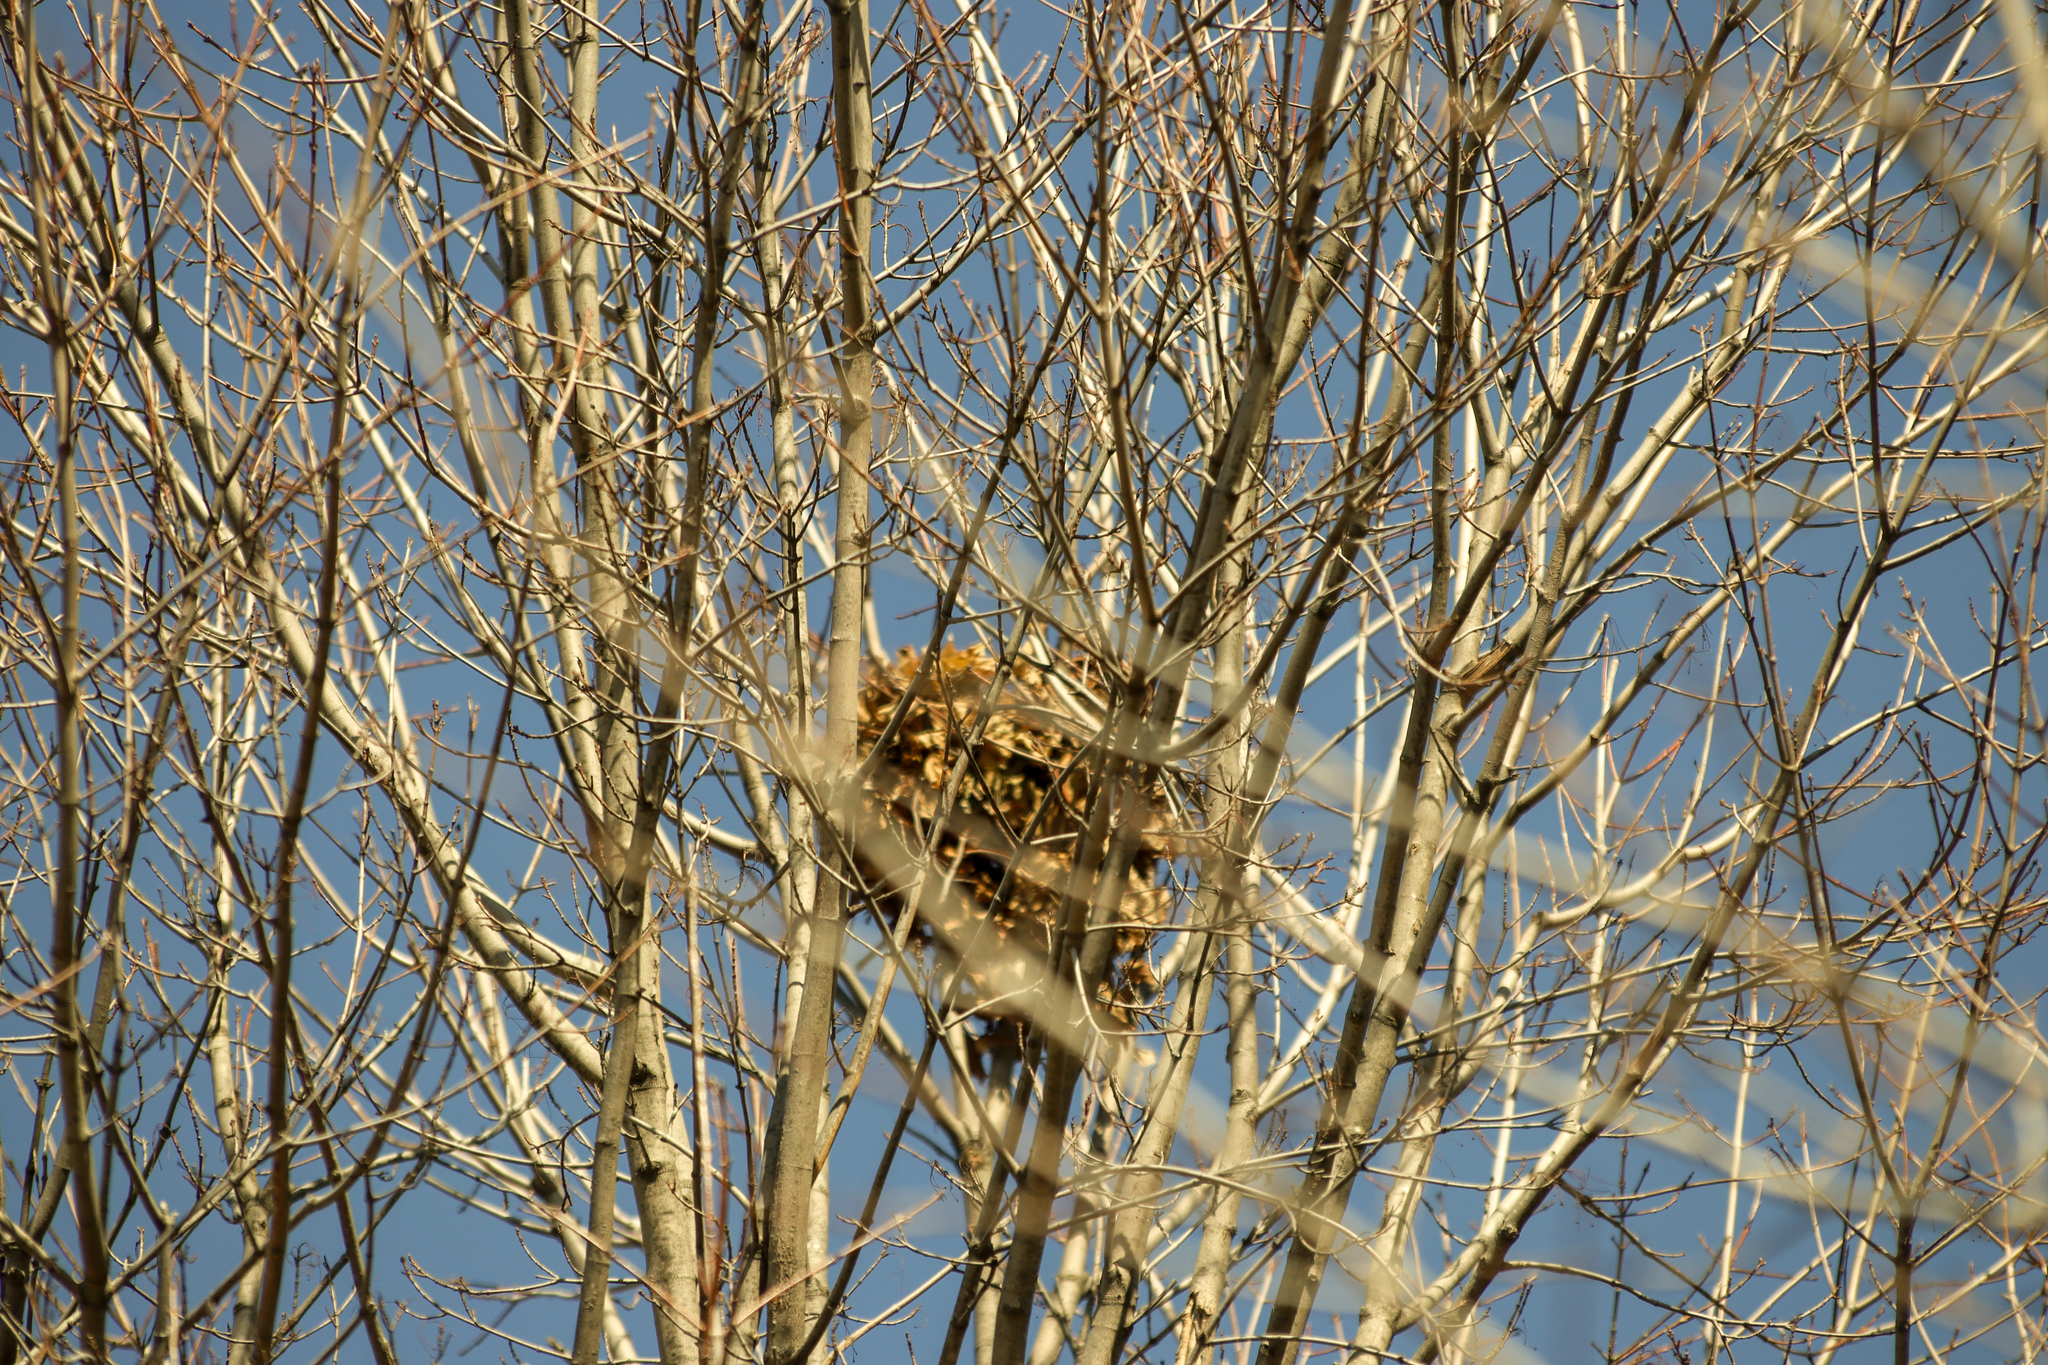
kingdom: Animalia
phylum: Chordata
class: Mammalia
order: Rodentia
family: Sciuridae
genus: Sciurus
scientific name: Sciurus carolinensis
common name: Eastern gray squirrel
